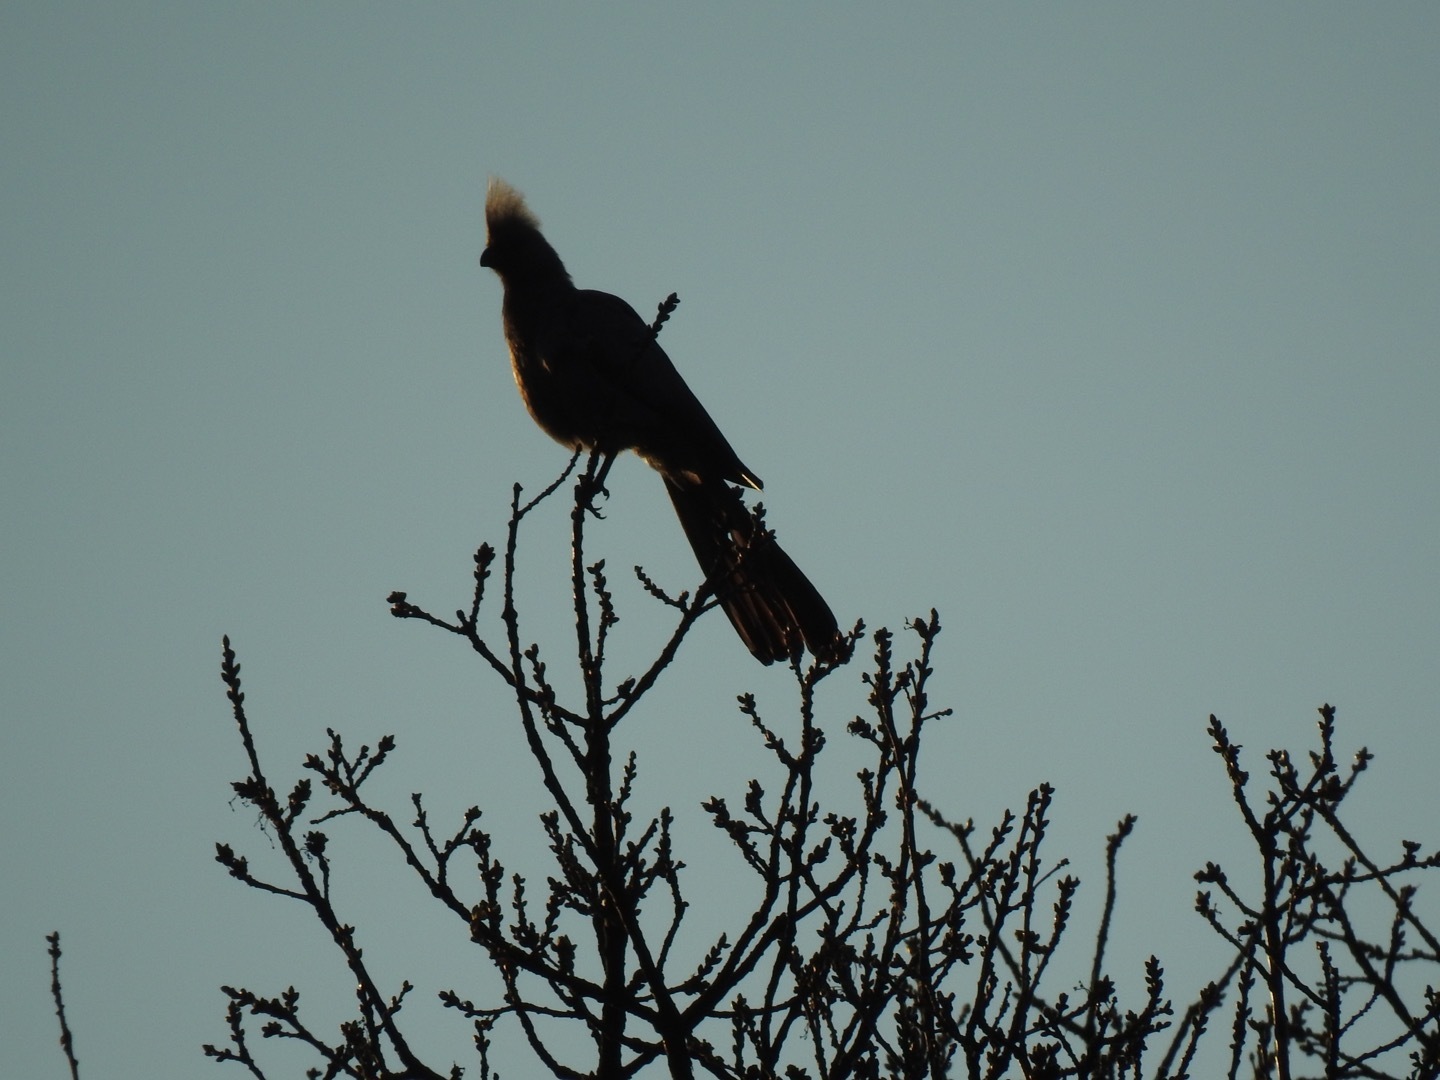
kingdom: Animalia
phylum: Chordata
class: Aves
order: Musophagiformes
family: Musophagidae
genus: Corythaixoides
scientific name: Corythaixoides concolor
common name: Grey go-away-bird
